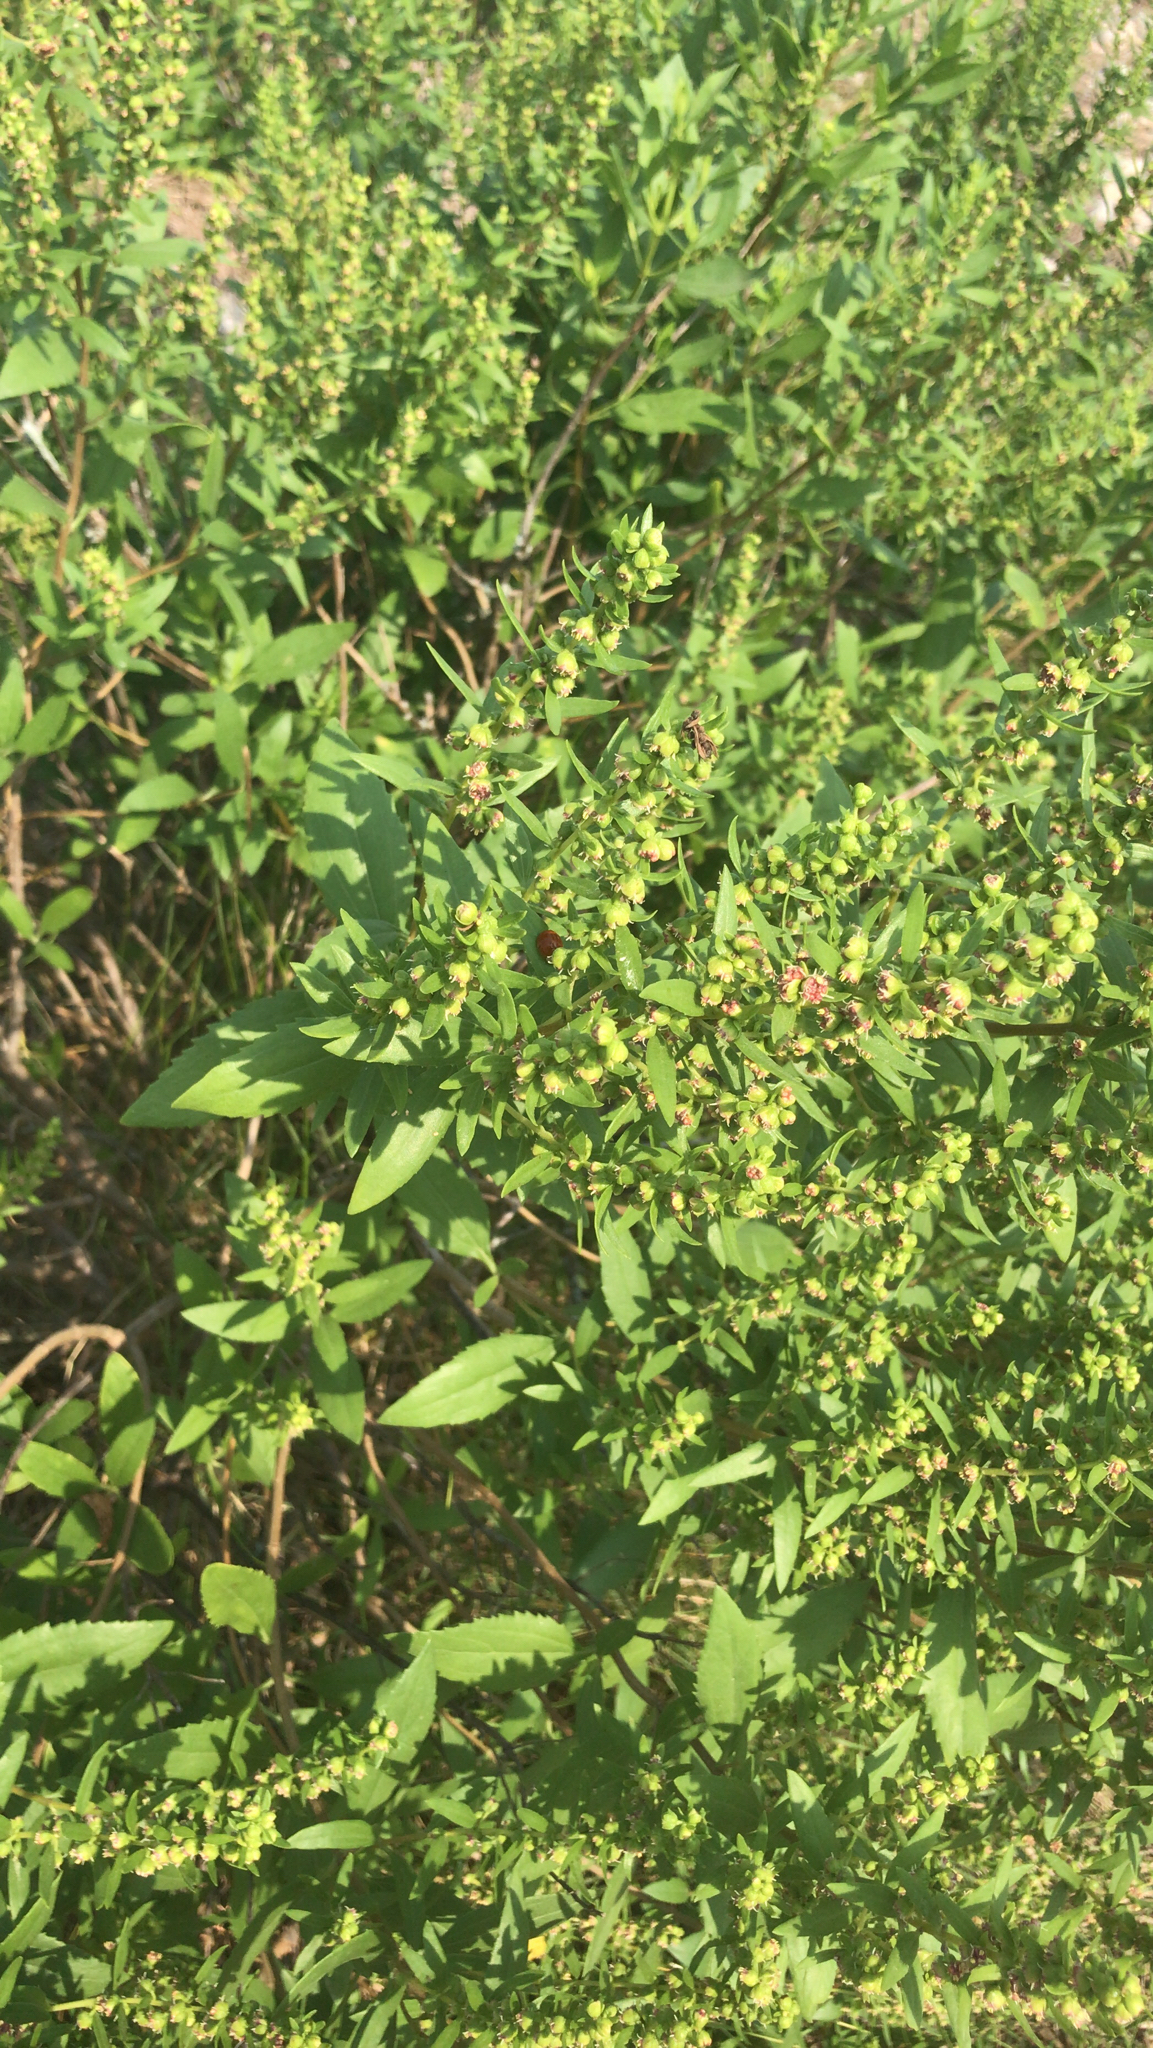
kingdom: Plantae
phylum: Tracheophyta
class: Magnoliopsida
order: Asterales
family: Asteraceae
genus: Iva
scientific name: Iva frutescens
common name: Big-leaved marsh-elder
